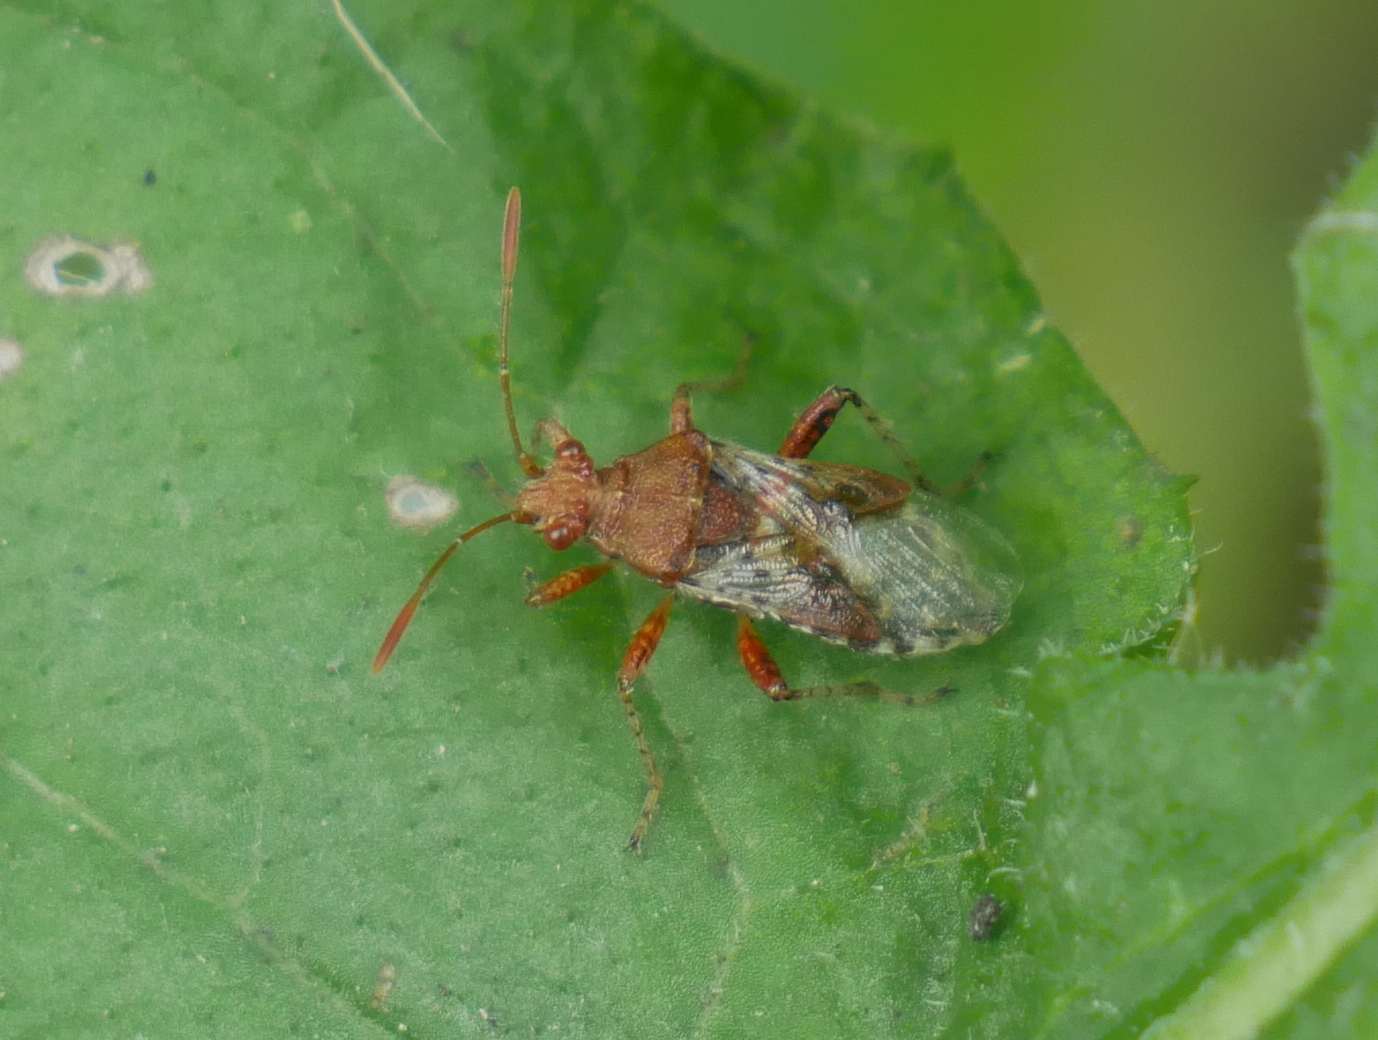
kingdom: Animalia
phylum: Arthropoda
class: Insecta
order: Hemiptera
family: Rhopalidae
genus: Rhopalus
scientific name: Rhopalus subrufus
